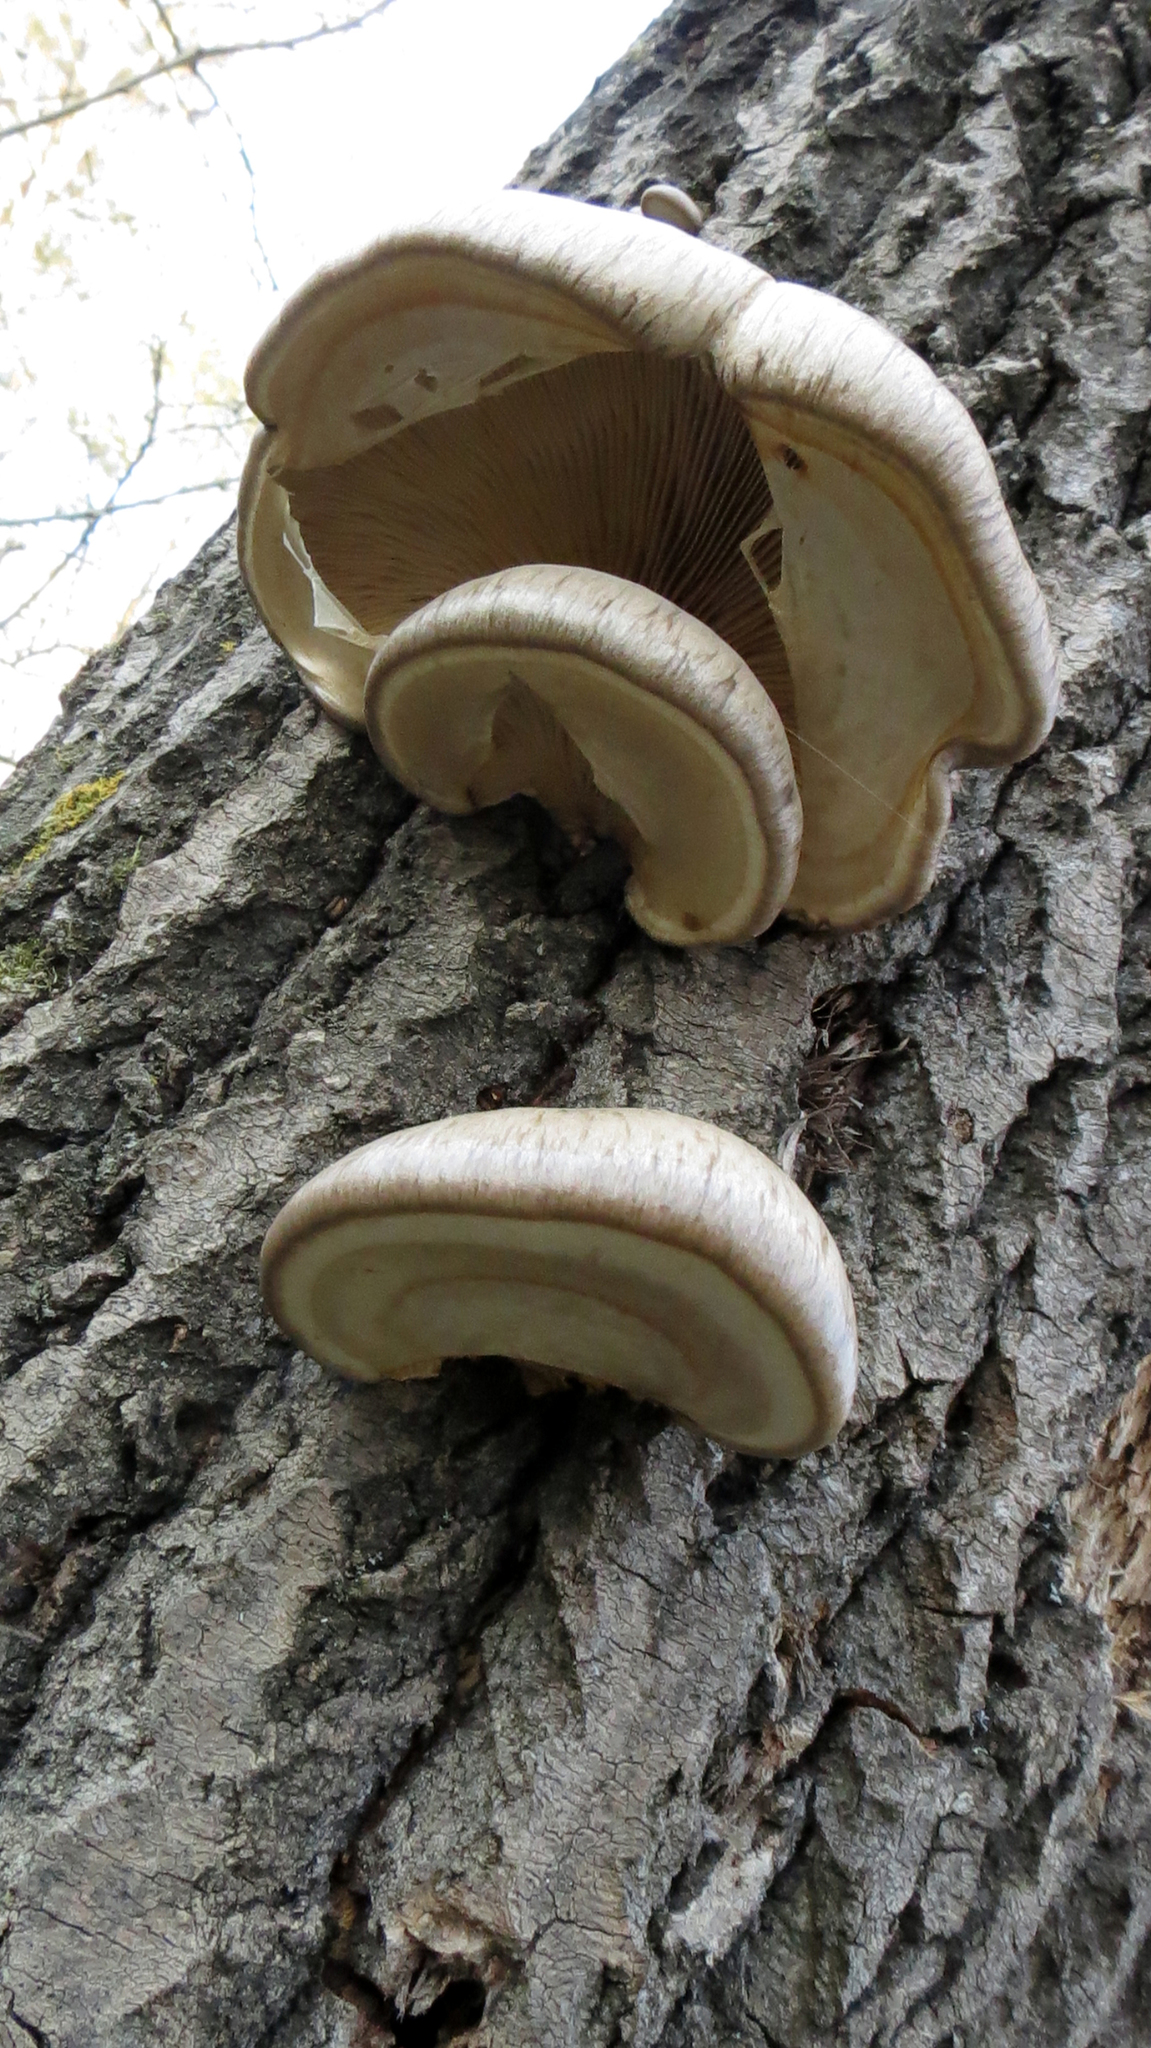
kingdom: Fungi
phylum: Basidiomycota
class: Agaricomycetes
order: Agaricales
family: Pleurotaceae
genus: Pleurotus
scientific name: Pleurotus calyptratus
